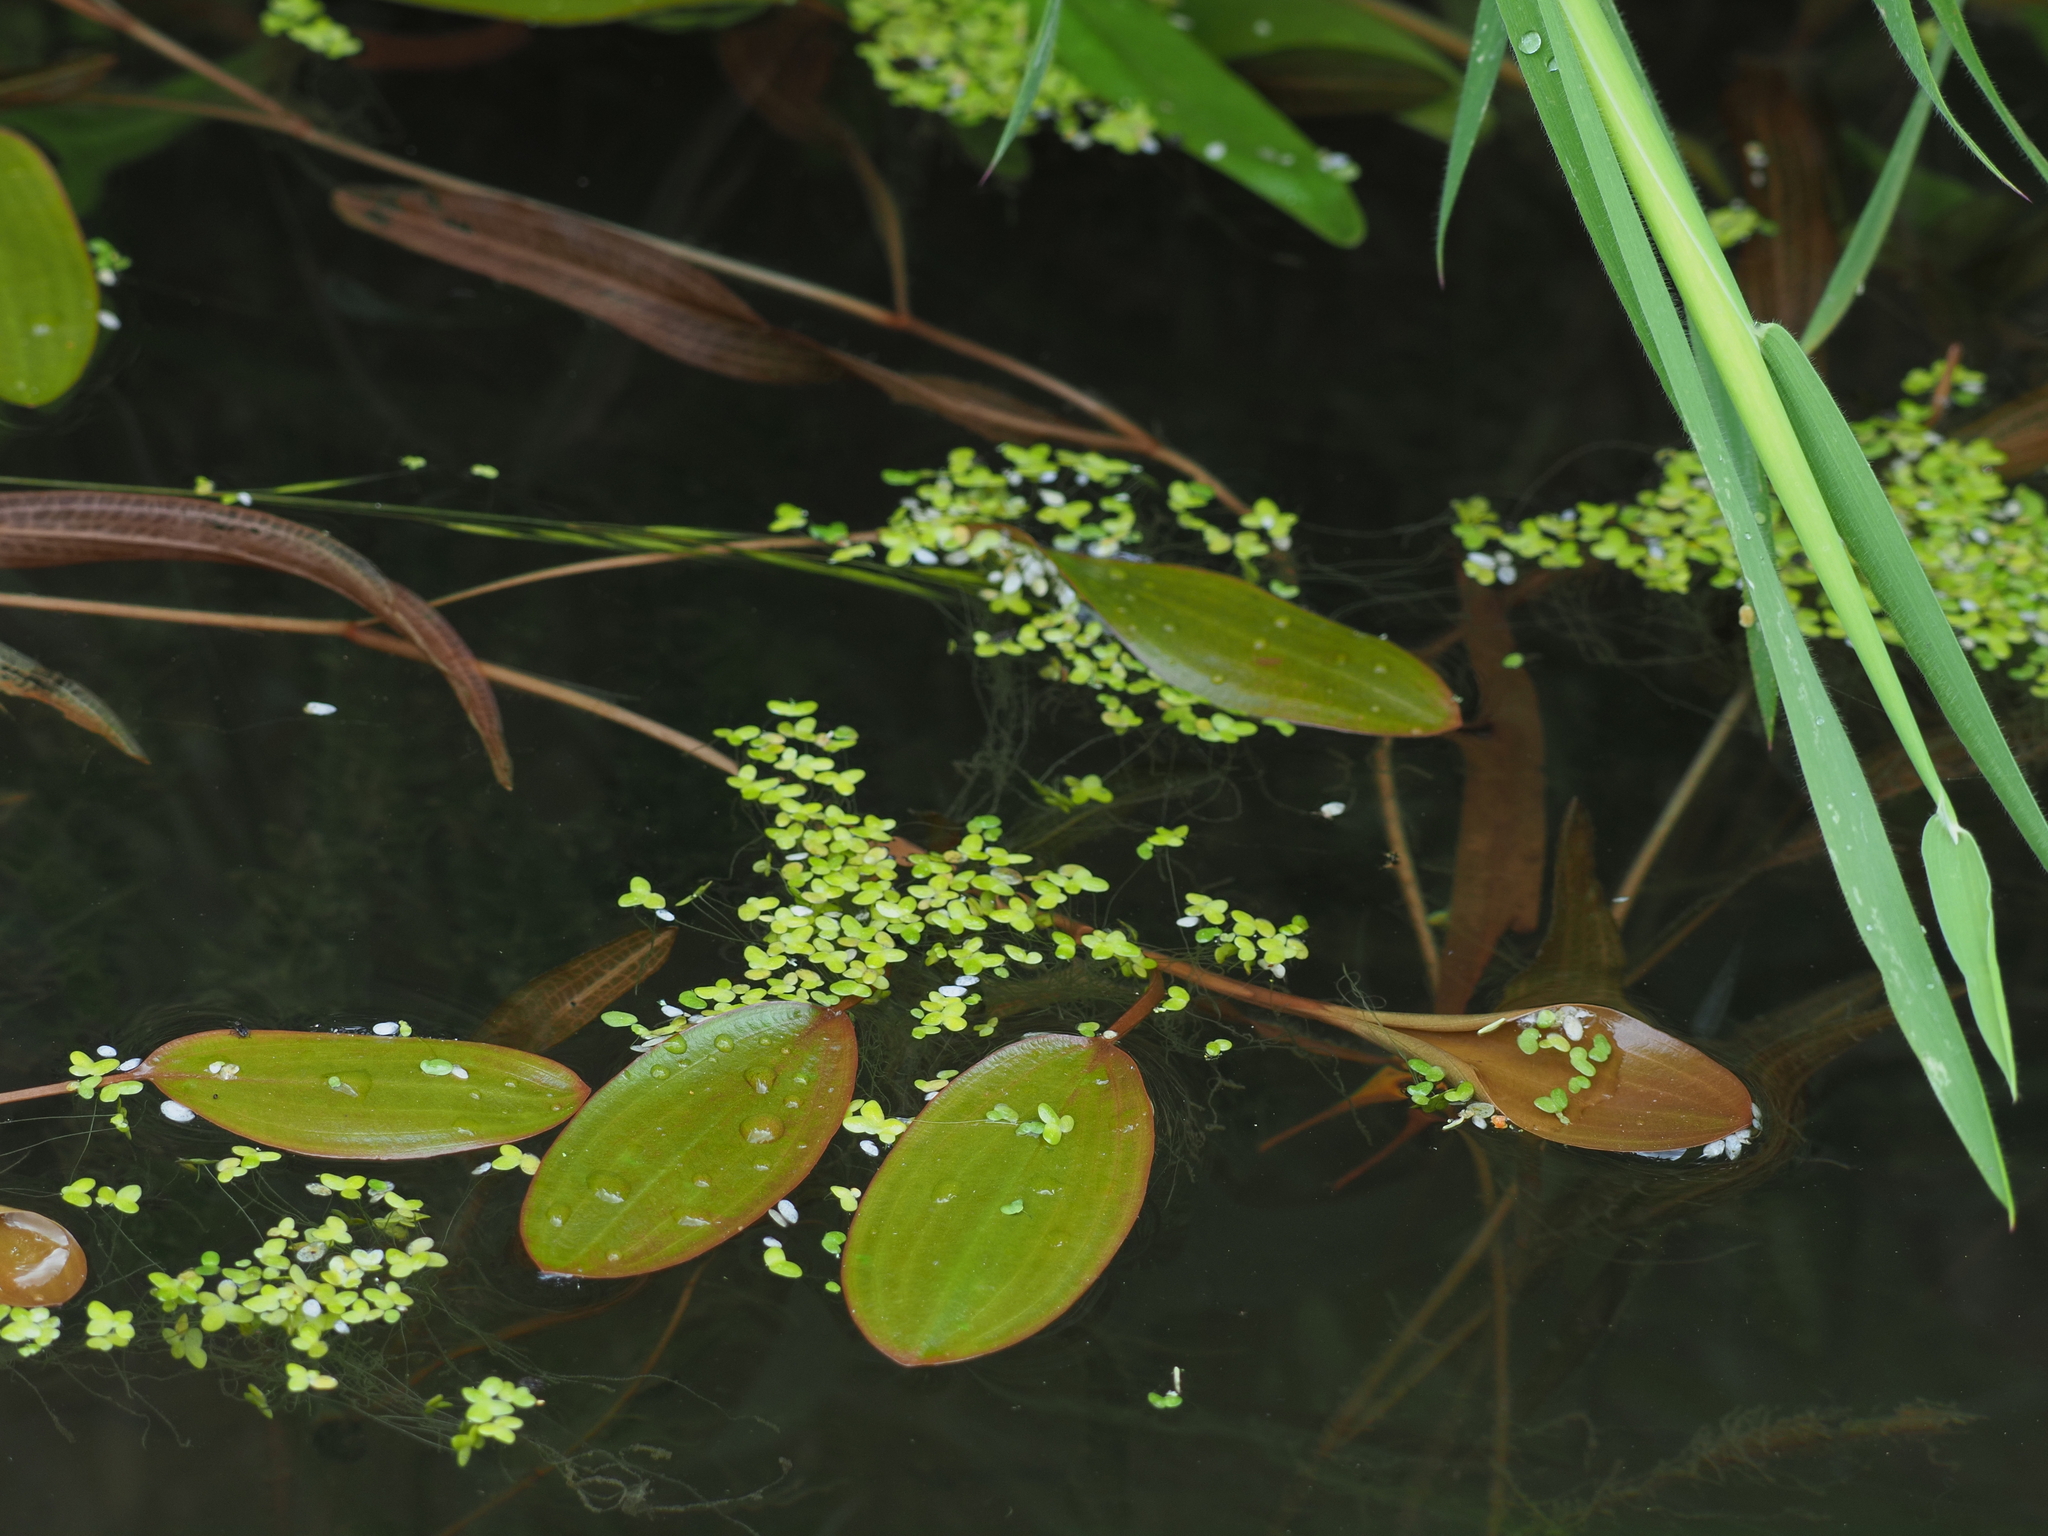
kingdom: Plantae
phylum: Tracheophyta
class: Liliopsida
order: Alismatales
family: Potamogetonaceae
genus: Potamogeton
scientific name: Potamogeton cheesemanii
